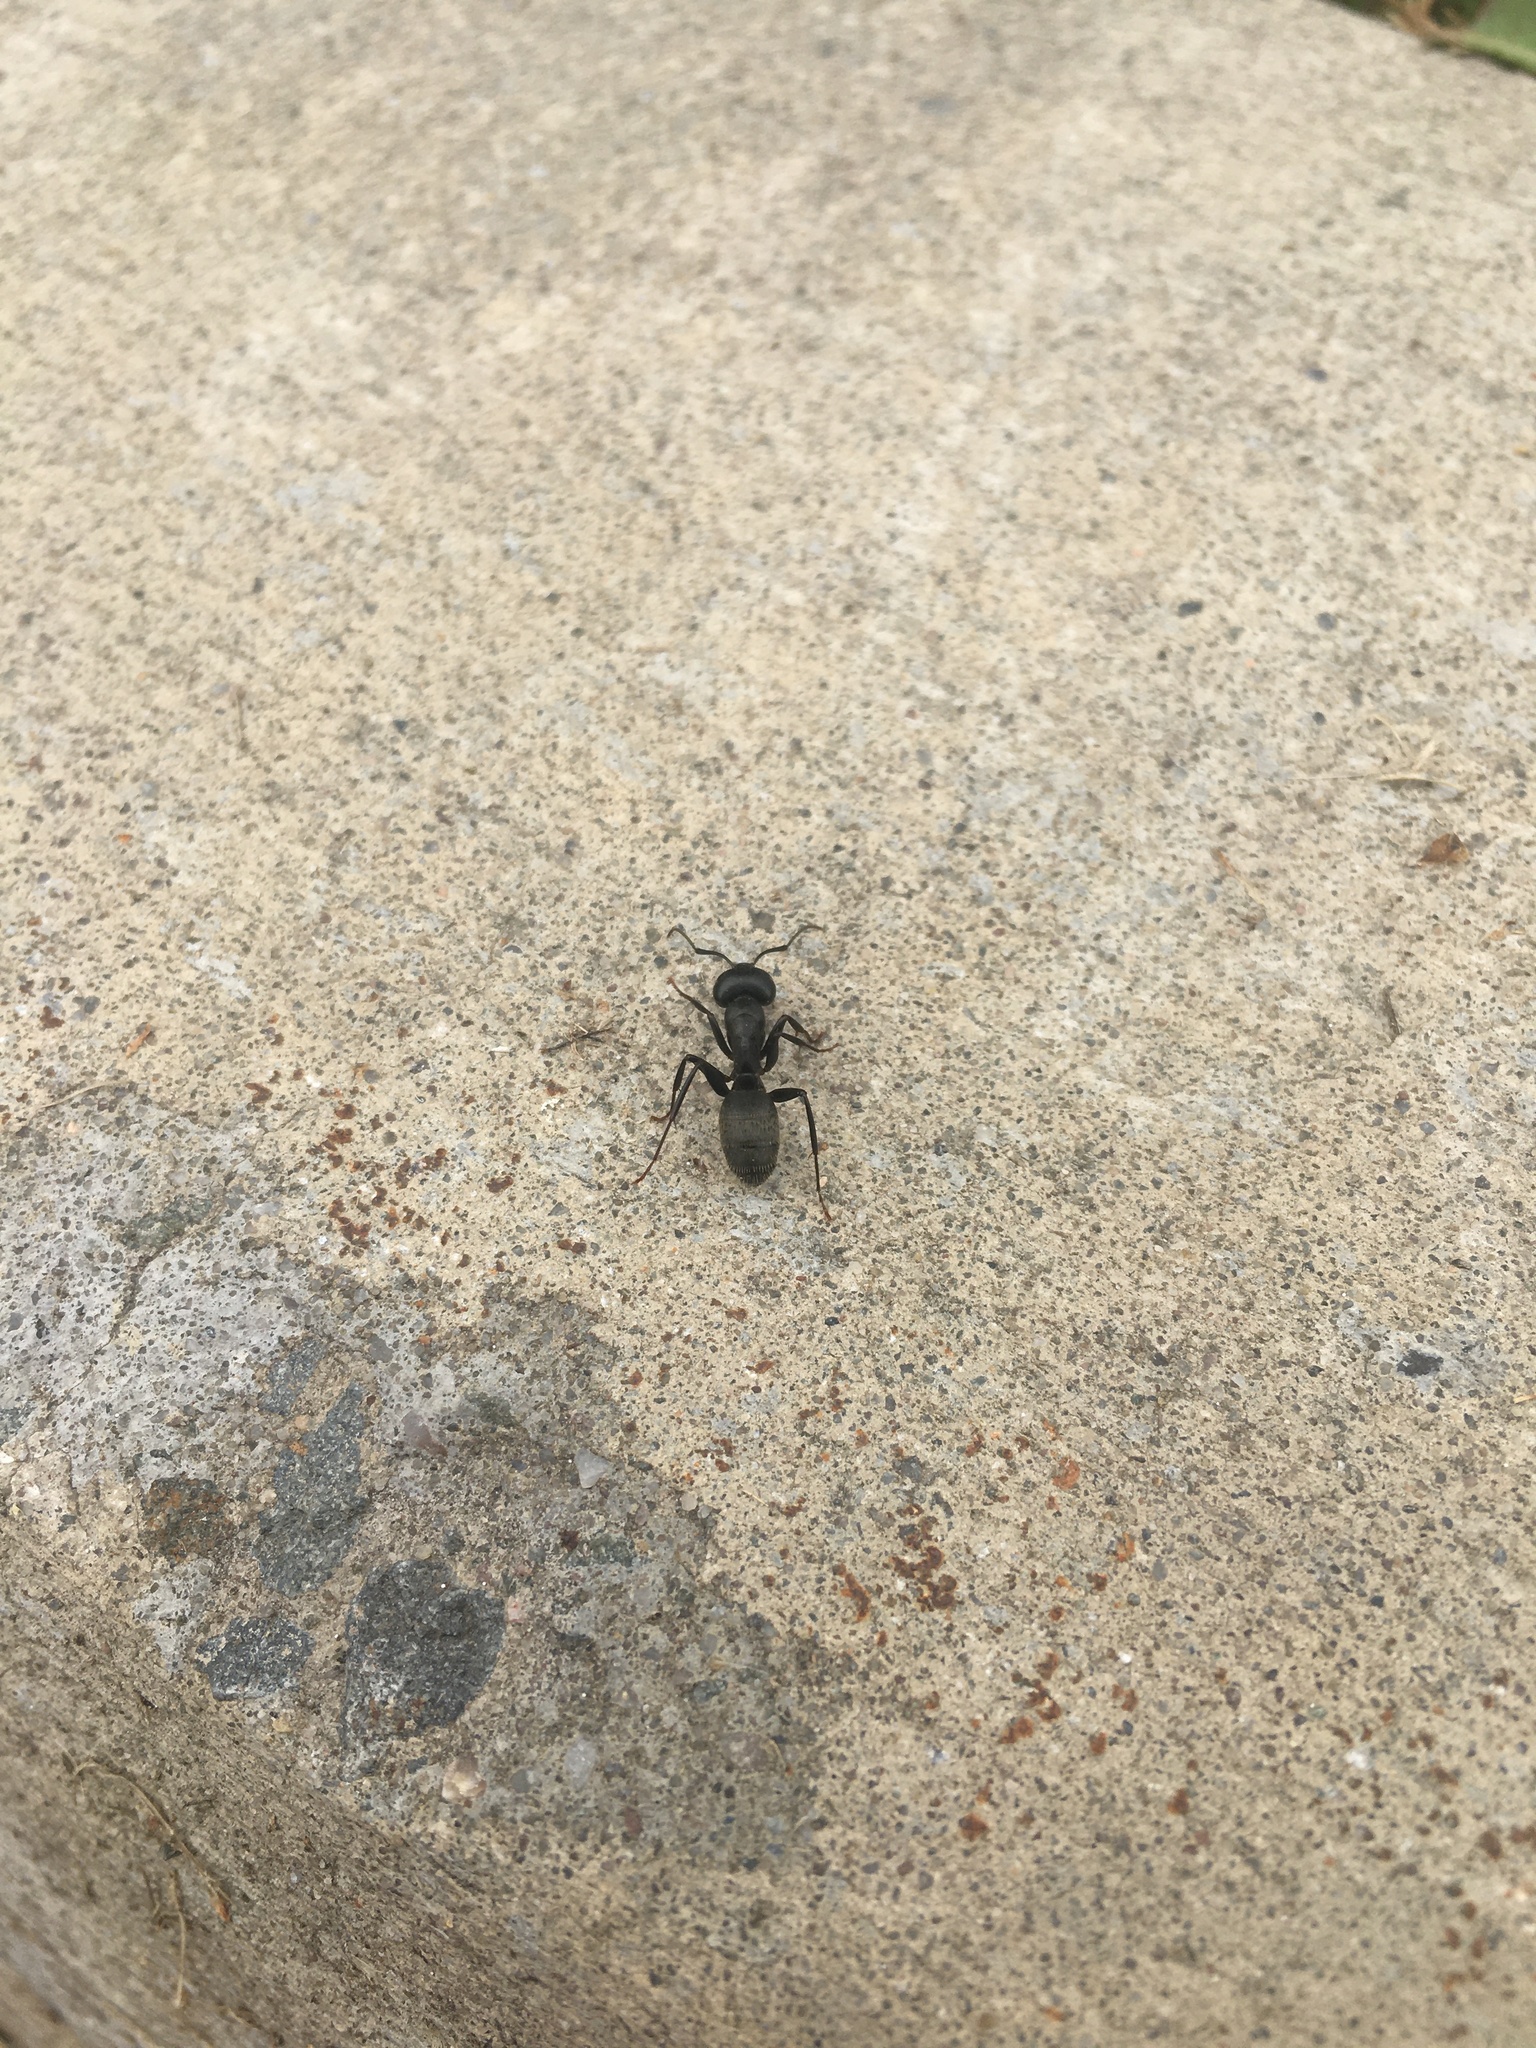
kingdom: Animalia
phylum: Arthropoda
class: Insecta
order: Hymenoptera
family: Formicidae
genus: Camponotus
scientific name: Camponotus pennsylvanicus
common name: Black carpenter ant
